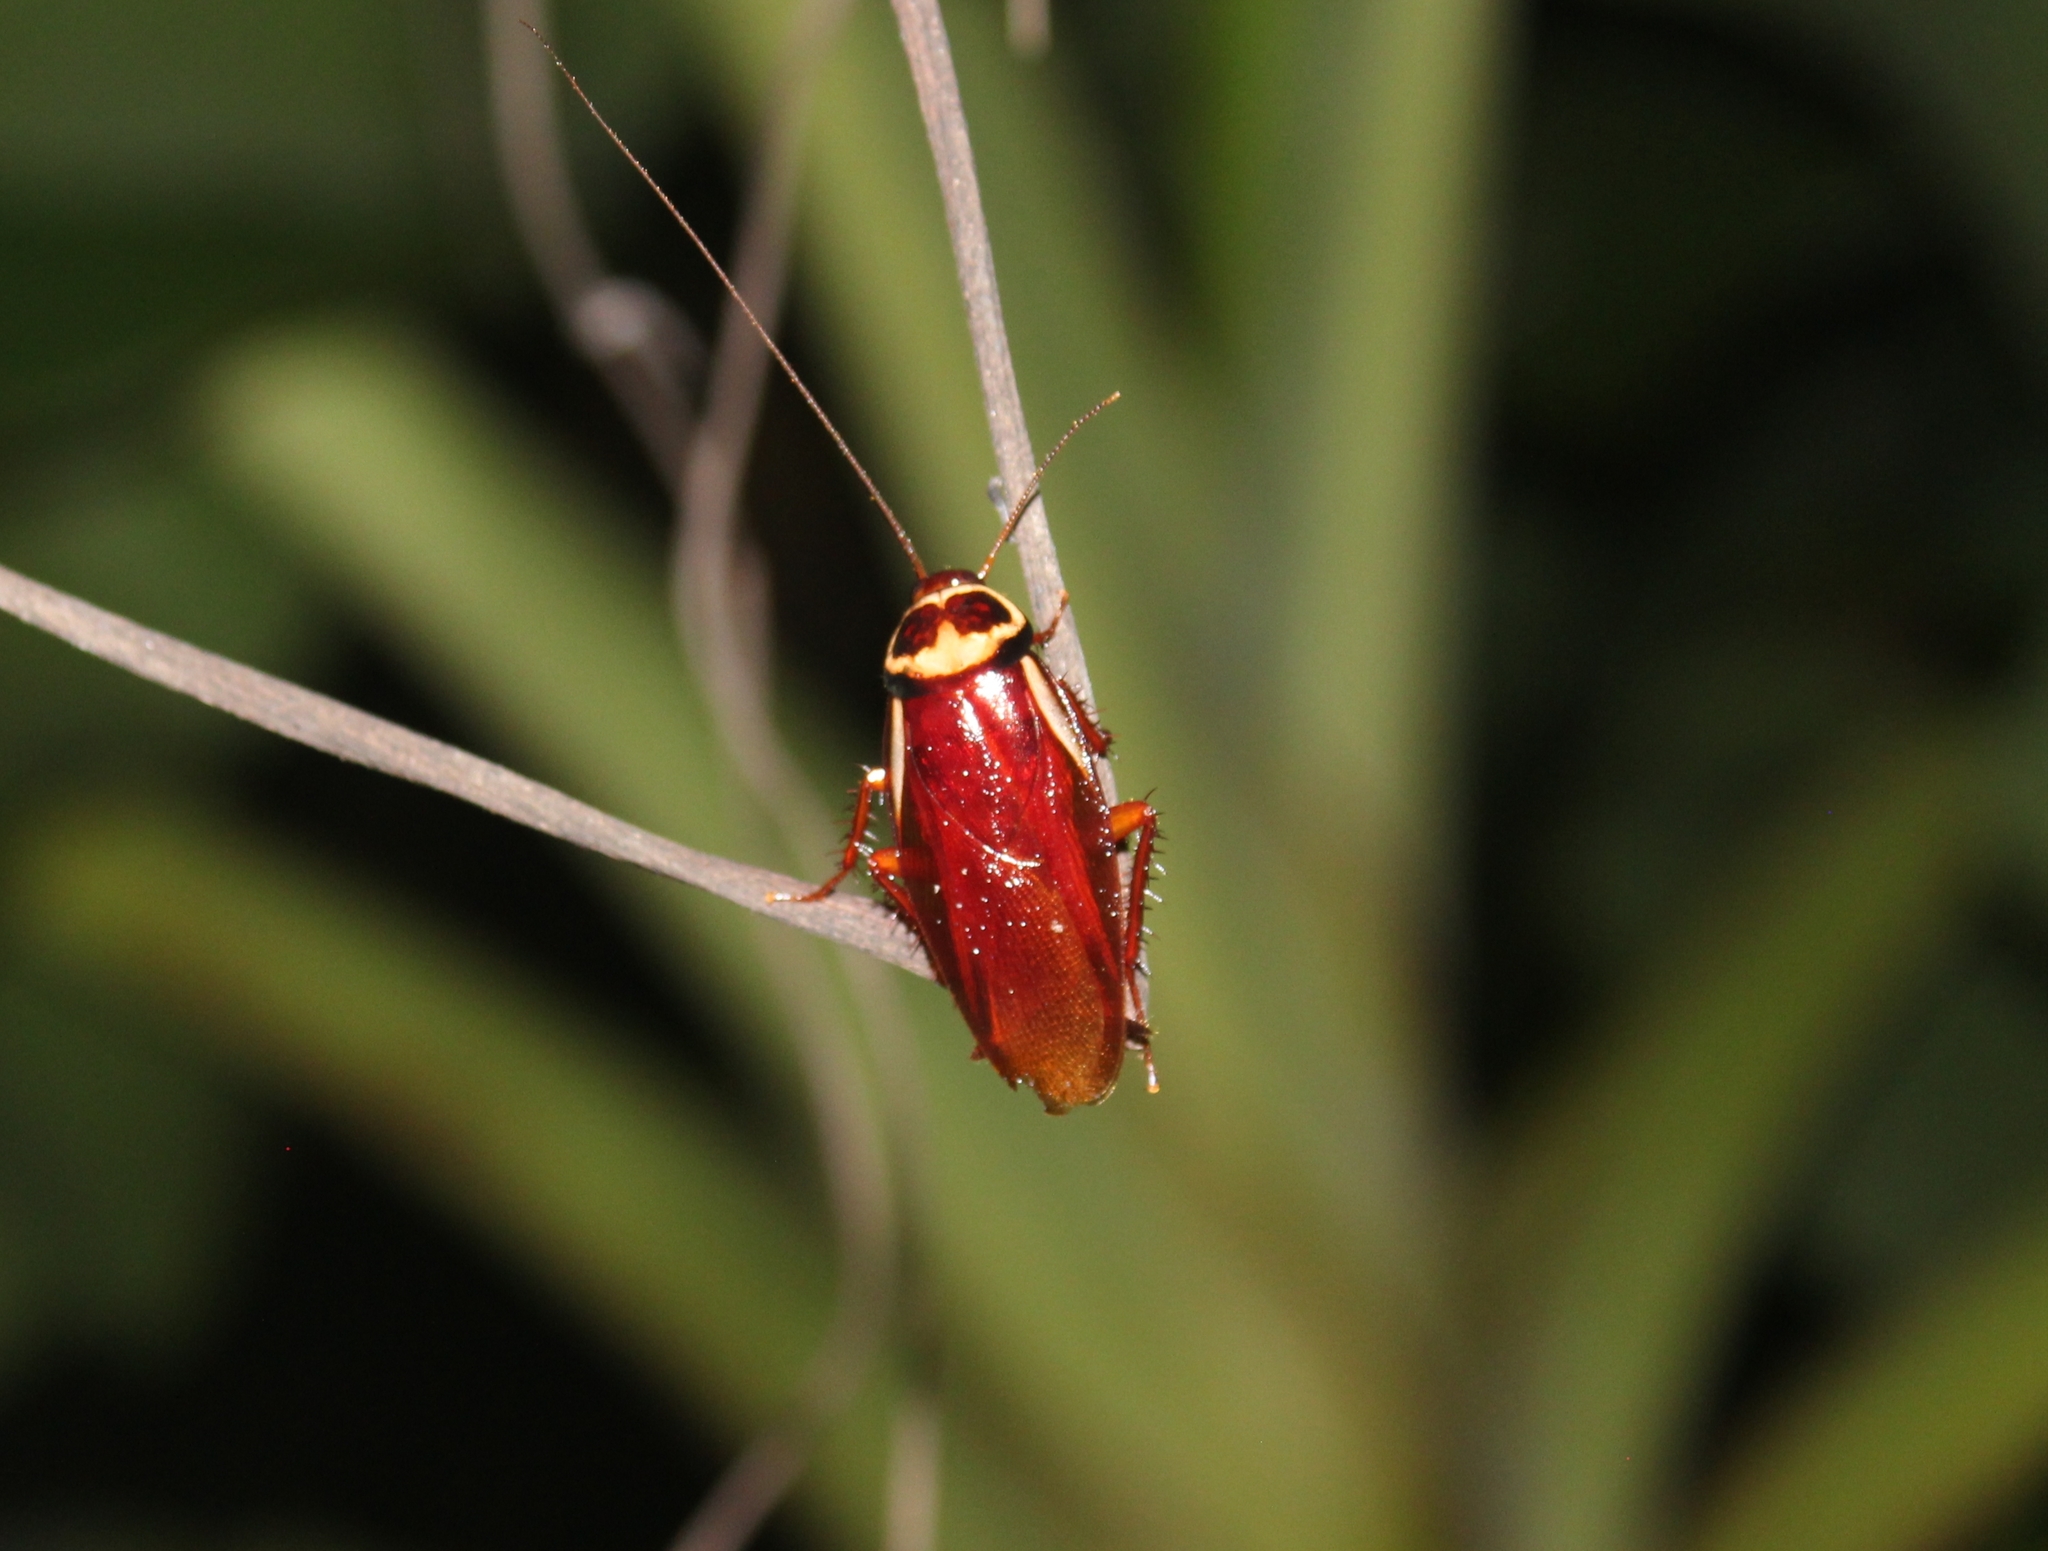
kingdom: Animalia
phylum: Arthropoda
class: Insecta
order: Blattodea
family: Blattidae
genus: Periplaneta
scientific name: Periplaneta australasiae
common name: Australian cockroach
